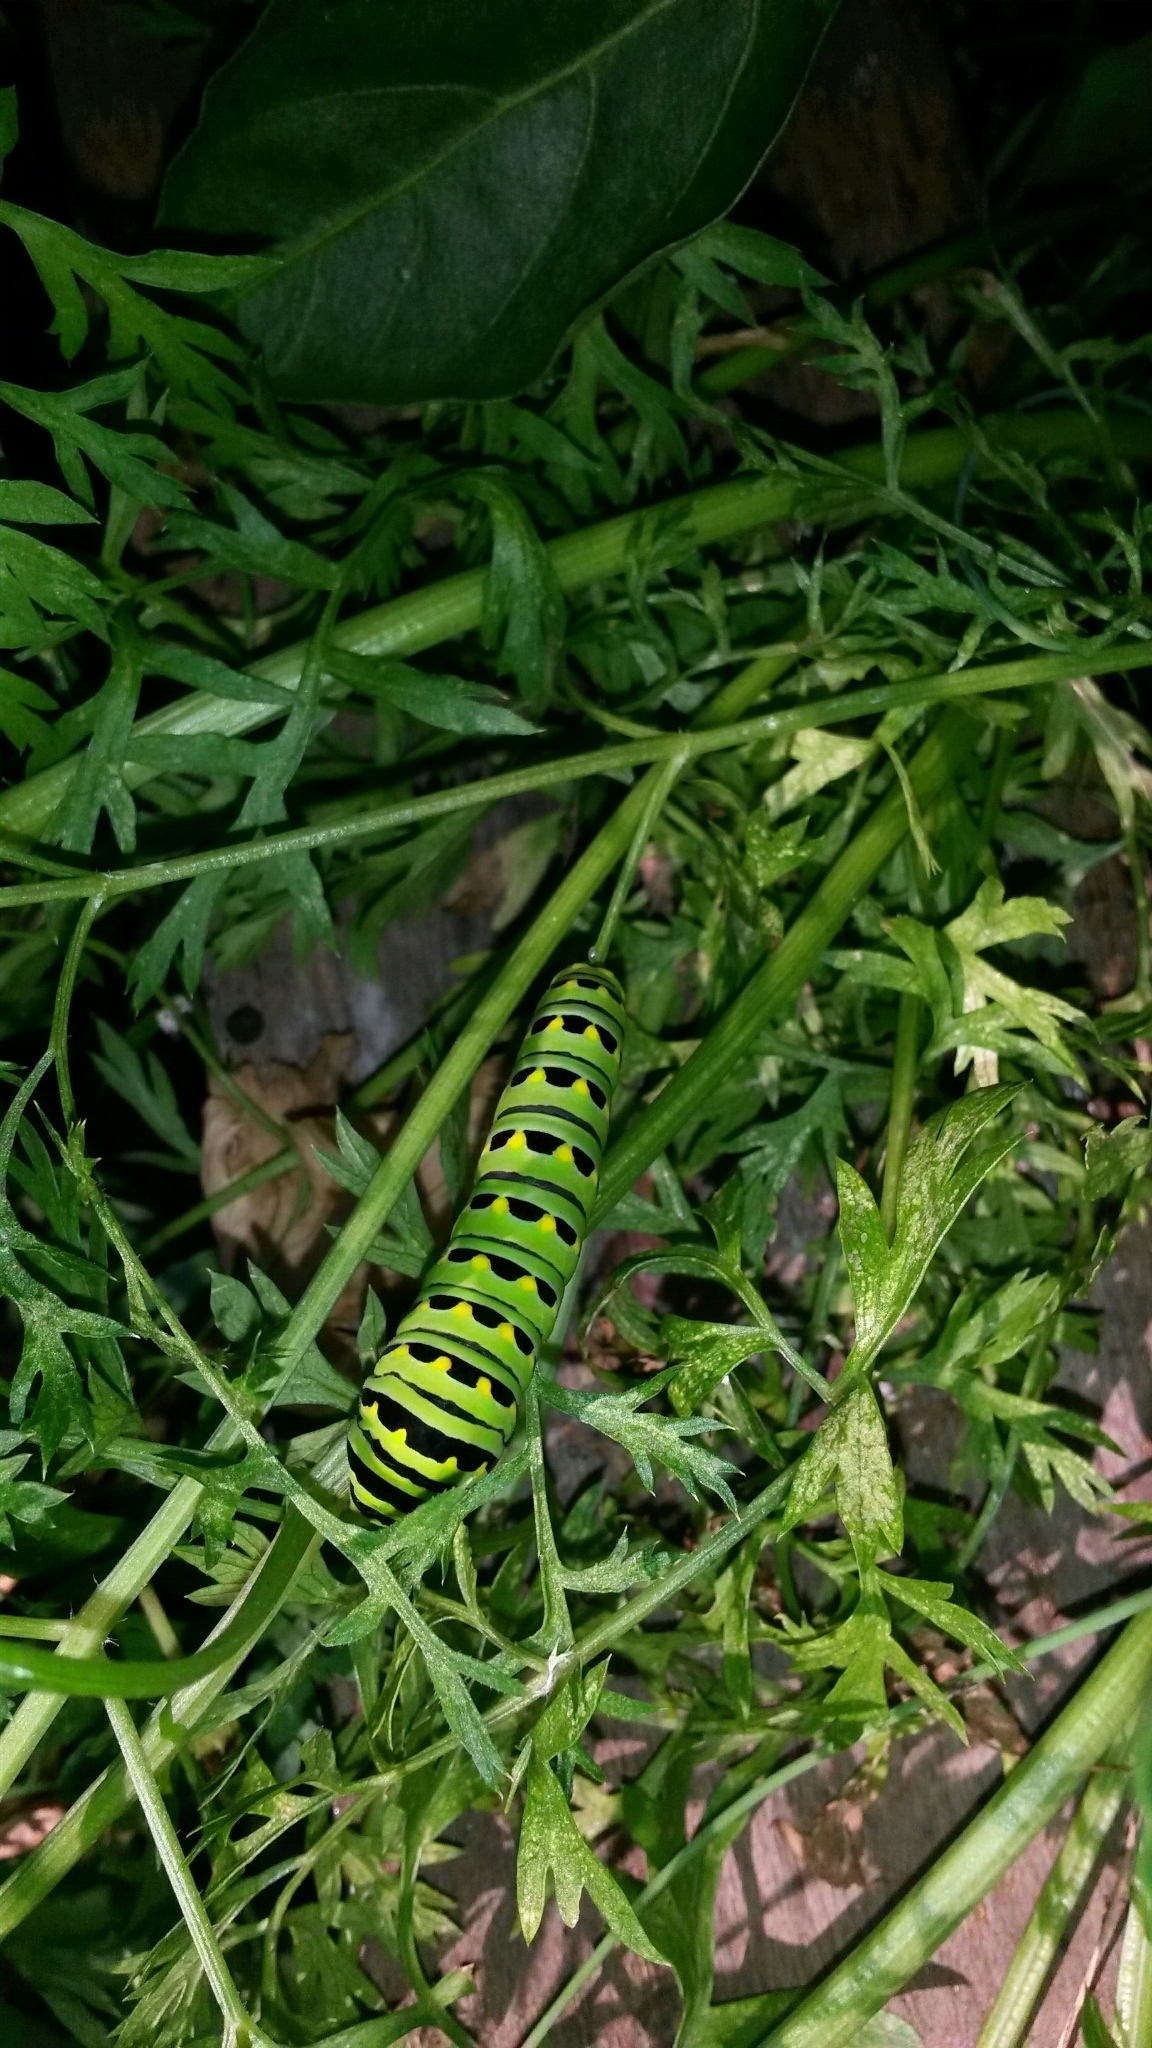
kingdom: Animalia
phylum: Arthropoda
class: Insecta
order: Lepidoptera
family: Papilionidae
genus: Papilio
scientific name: Papilio polyxenes
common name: Black swallowtail
